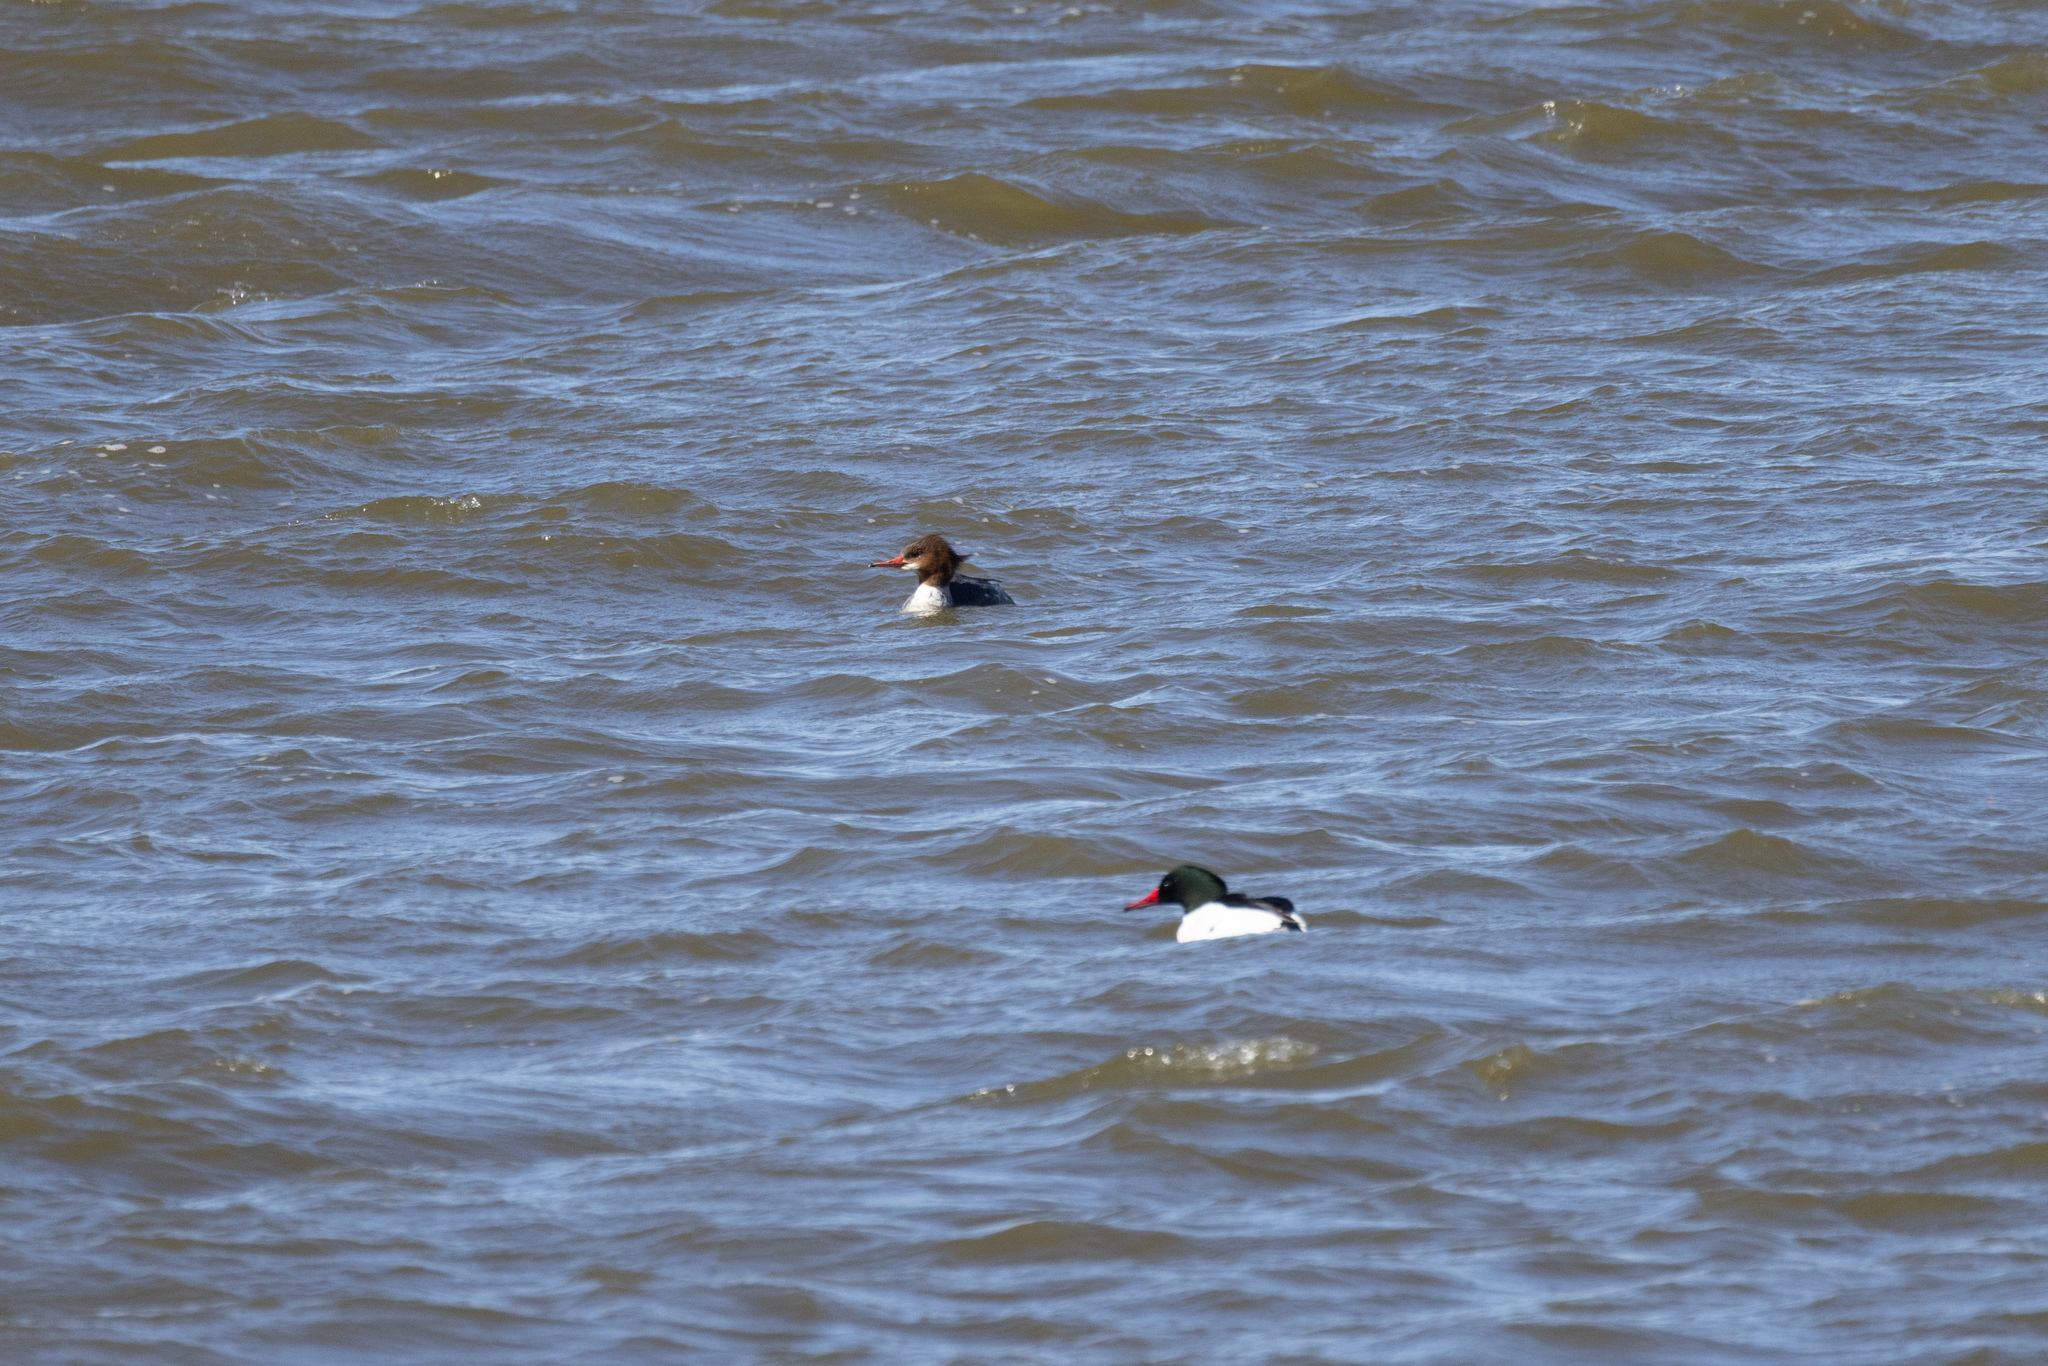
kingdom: Animalia
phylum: Chordata
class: Aves
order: Anseriformes
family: Anatidae
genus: Mergus
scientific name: Mergus merganser
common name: Common merganser
